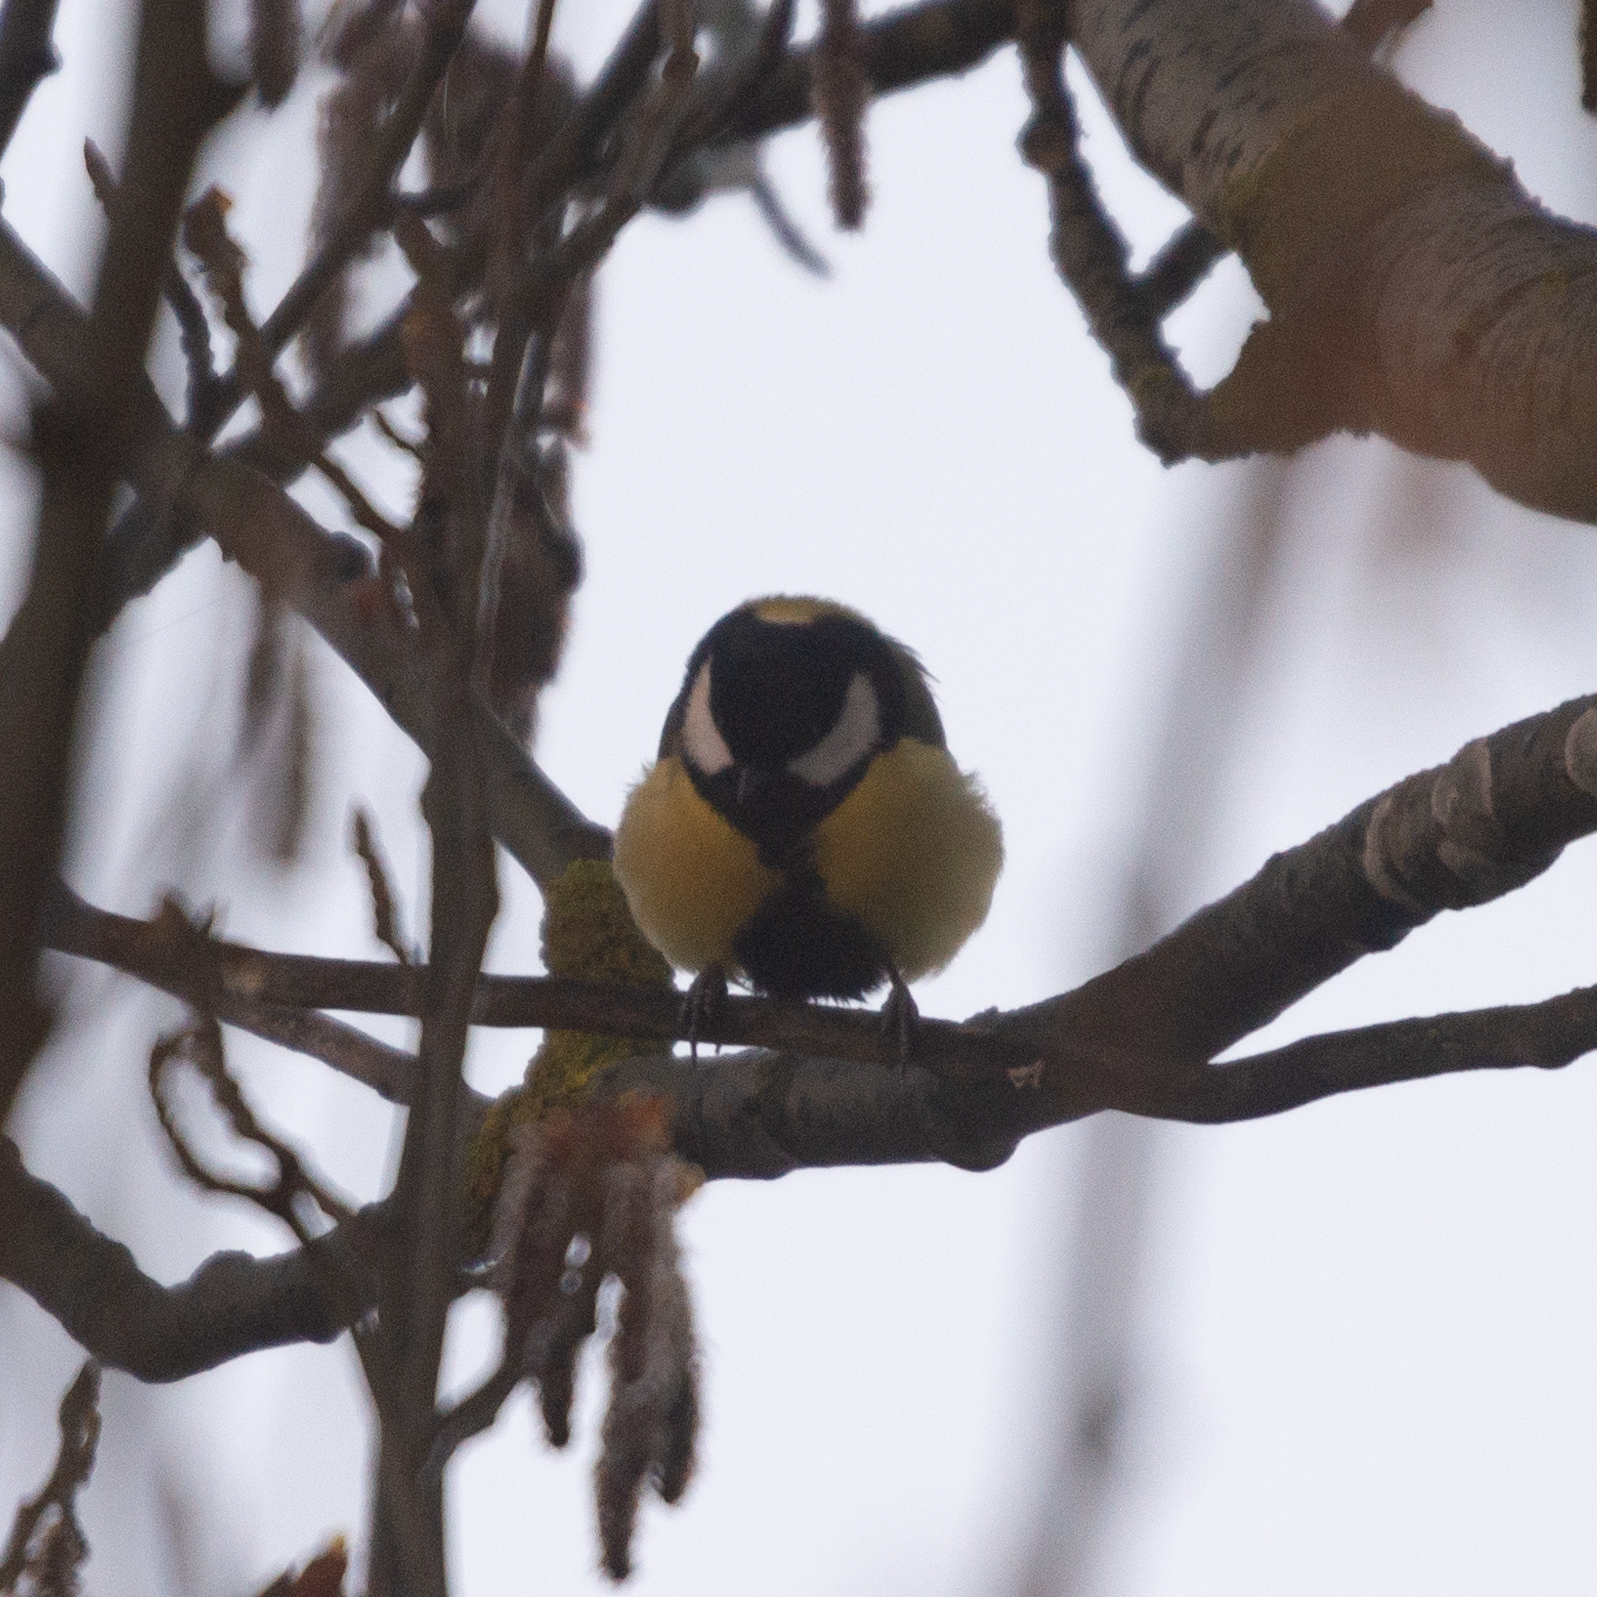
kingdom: Animalia
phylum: Chordata
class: Aves
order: Passeriformes
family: Paridae
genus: Parus
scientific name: Parus major
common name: Great tit
